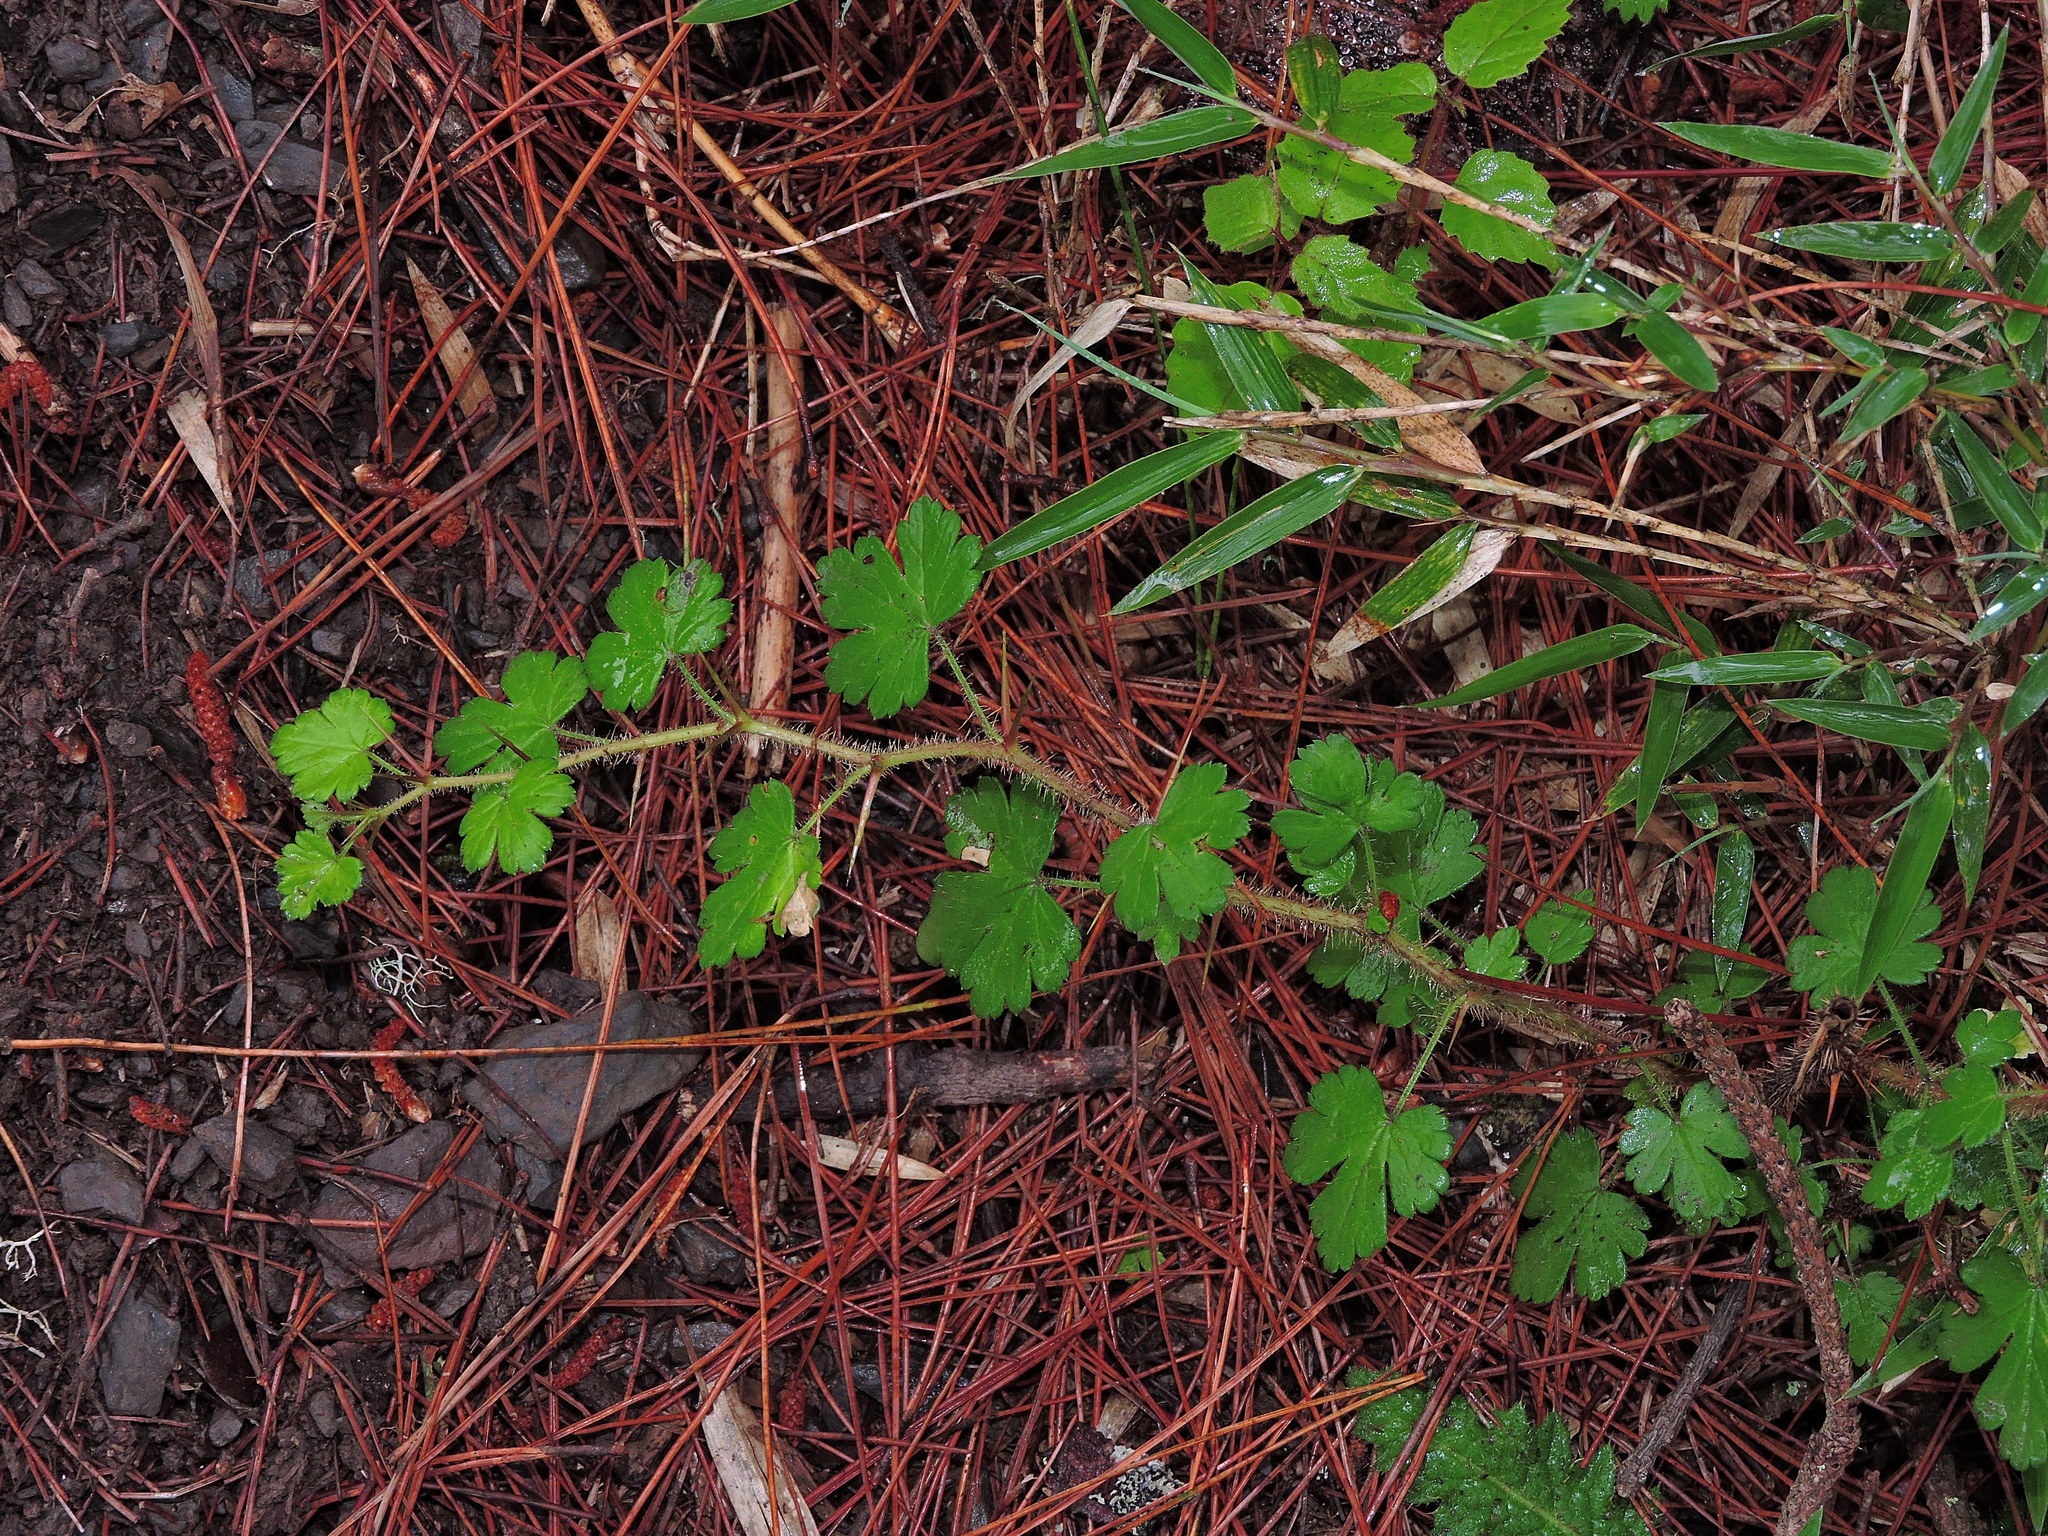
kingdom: Plantae
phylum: Tracheophyta
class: Magnoliopsida
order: Saxifragales
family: Grossulariaceae
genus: Ribes
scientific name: Ribes formosanum
